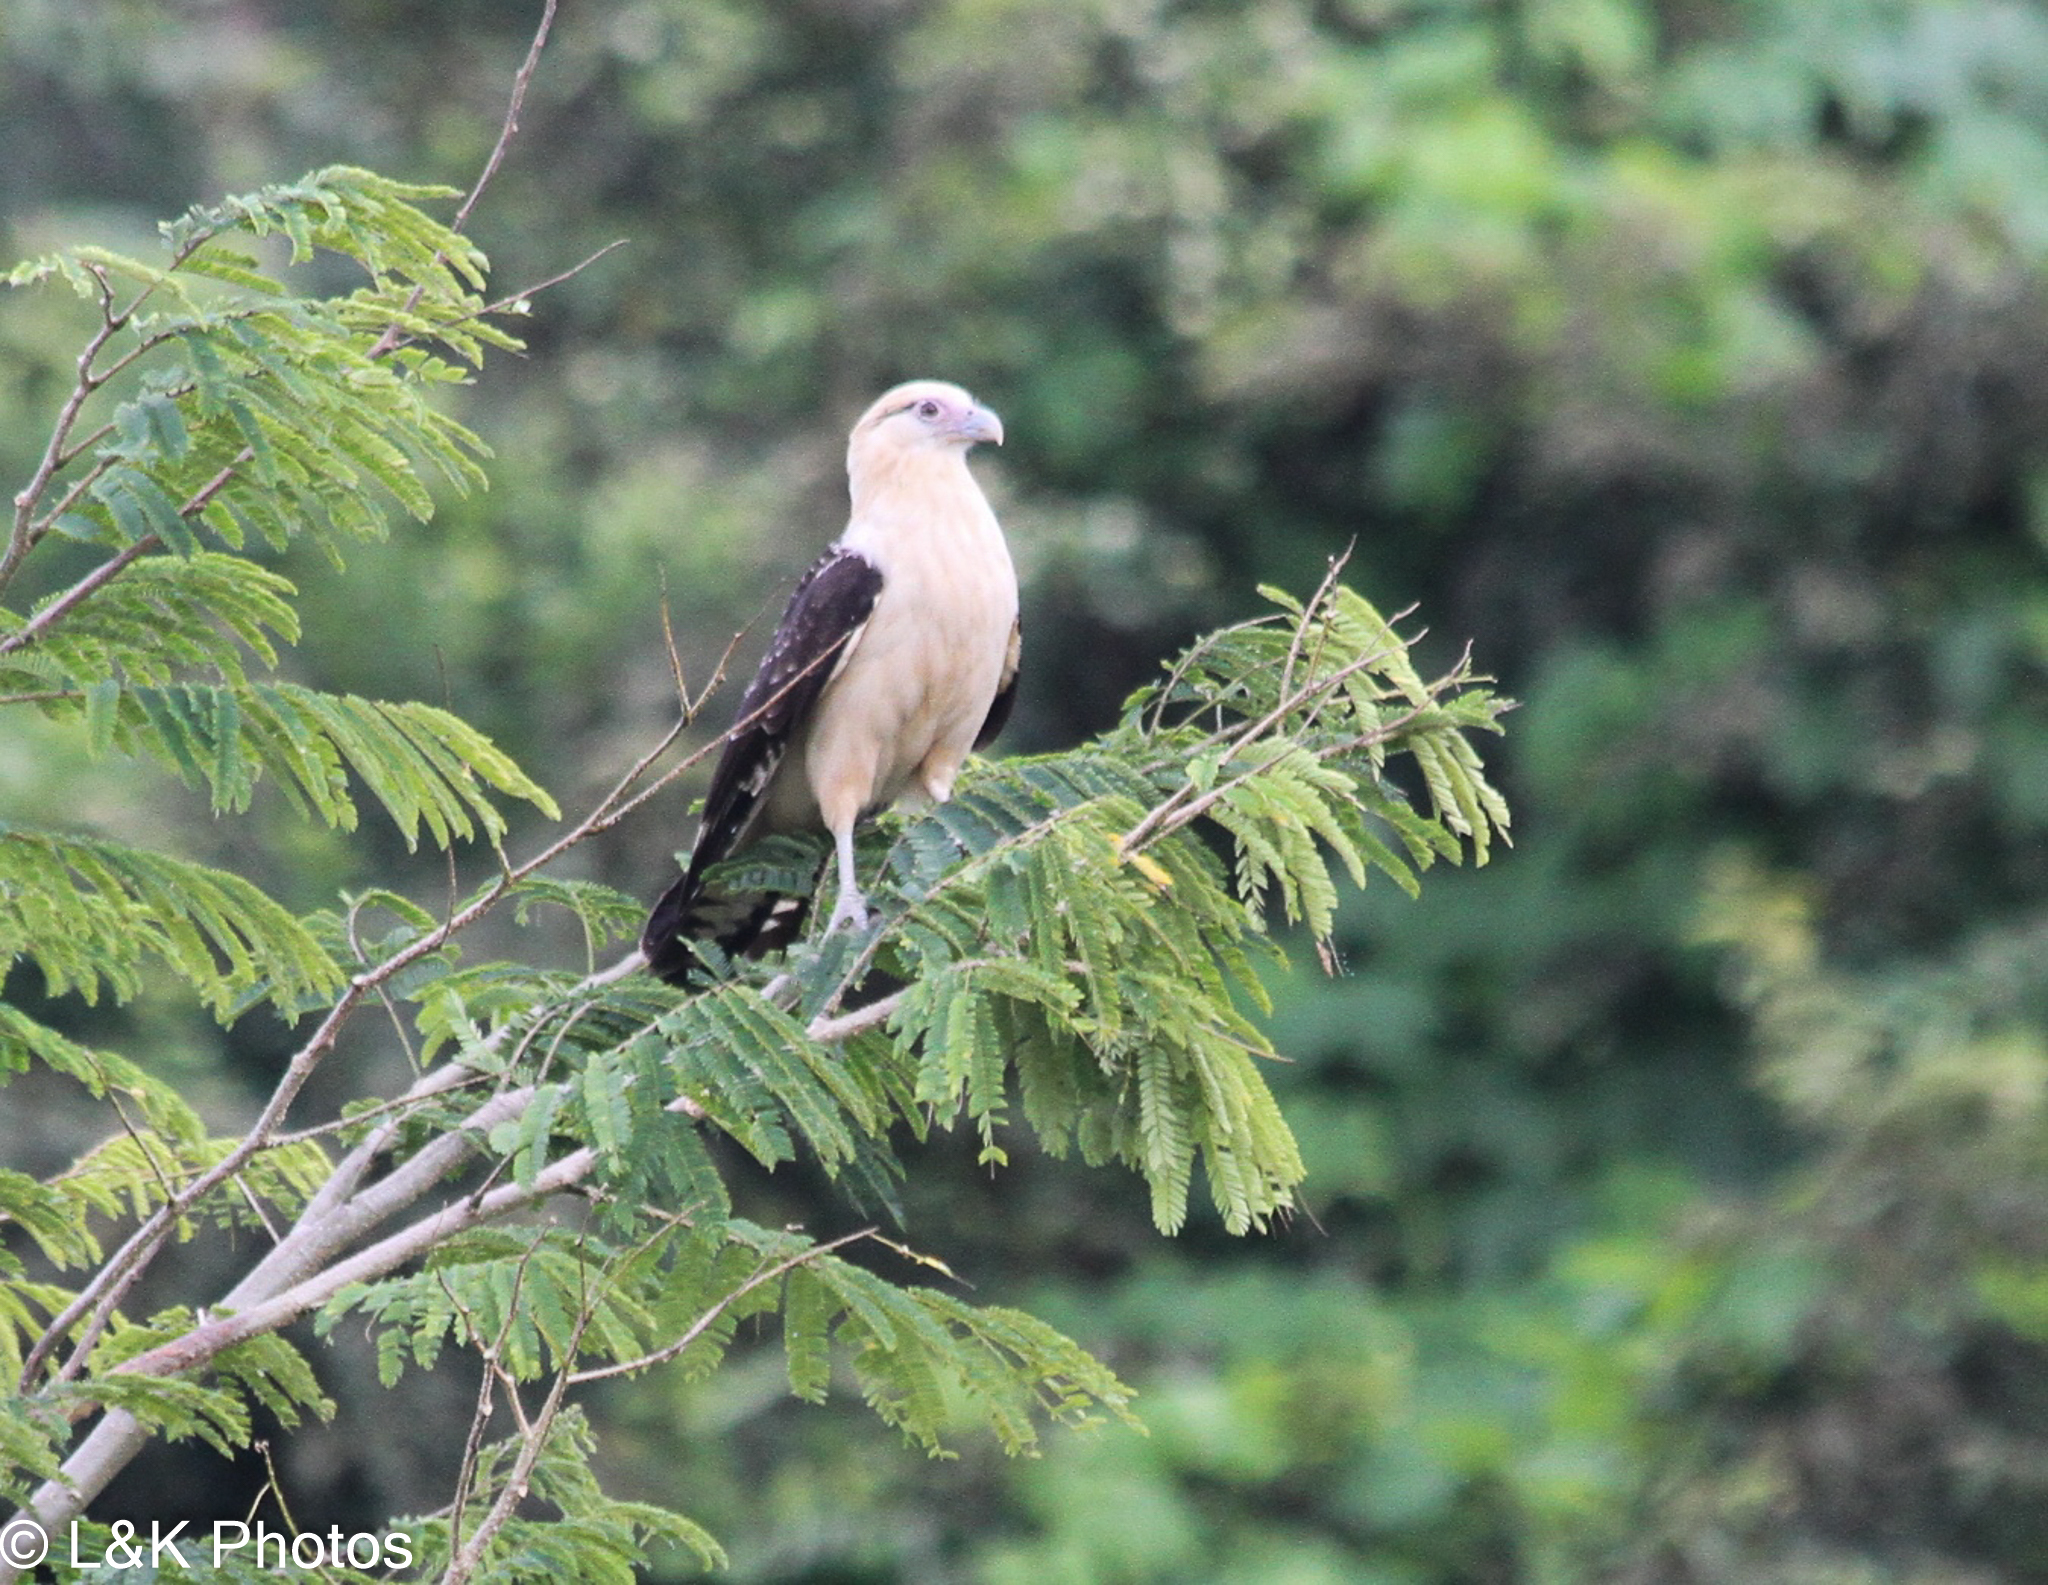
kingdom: Animalia
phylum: Chordata
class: Aves
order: Falconiformes
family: Falconidae
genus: Daptrius
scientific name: Daptrius
